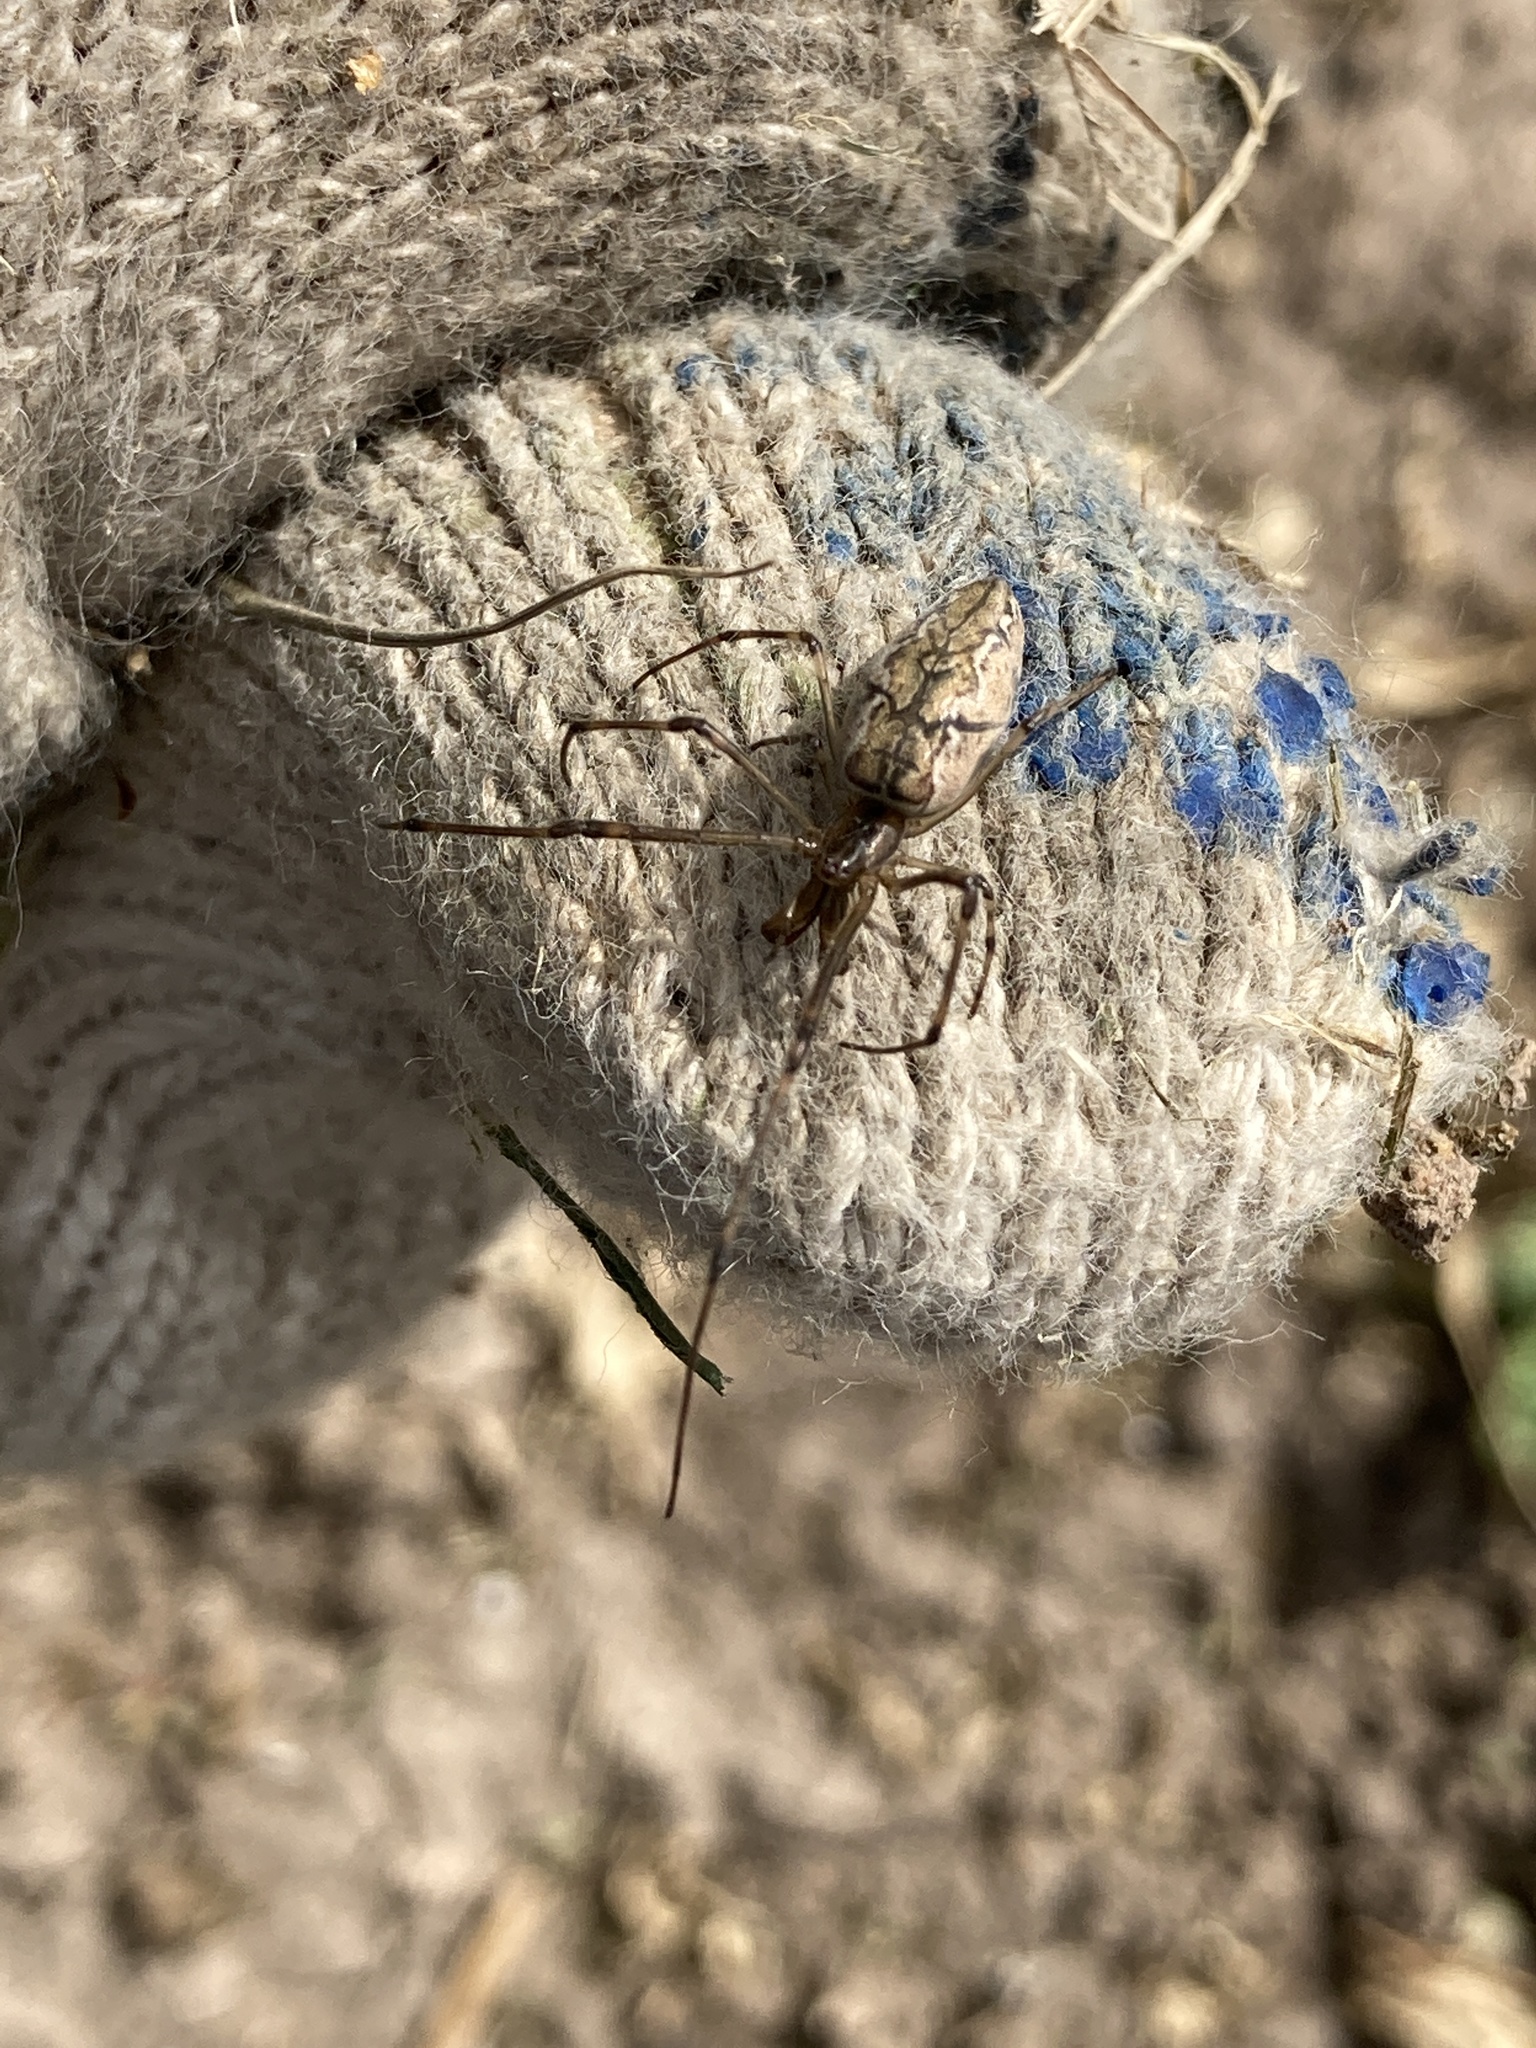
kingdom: Animalia
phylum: Arthropoda
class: Arachnida
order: Araneae
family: Tetragnathidae
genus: Tetragnatha
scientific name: Tetragnatha
